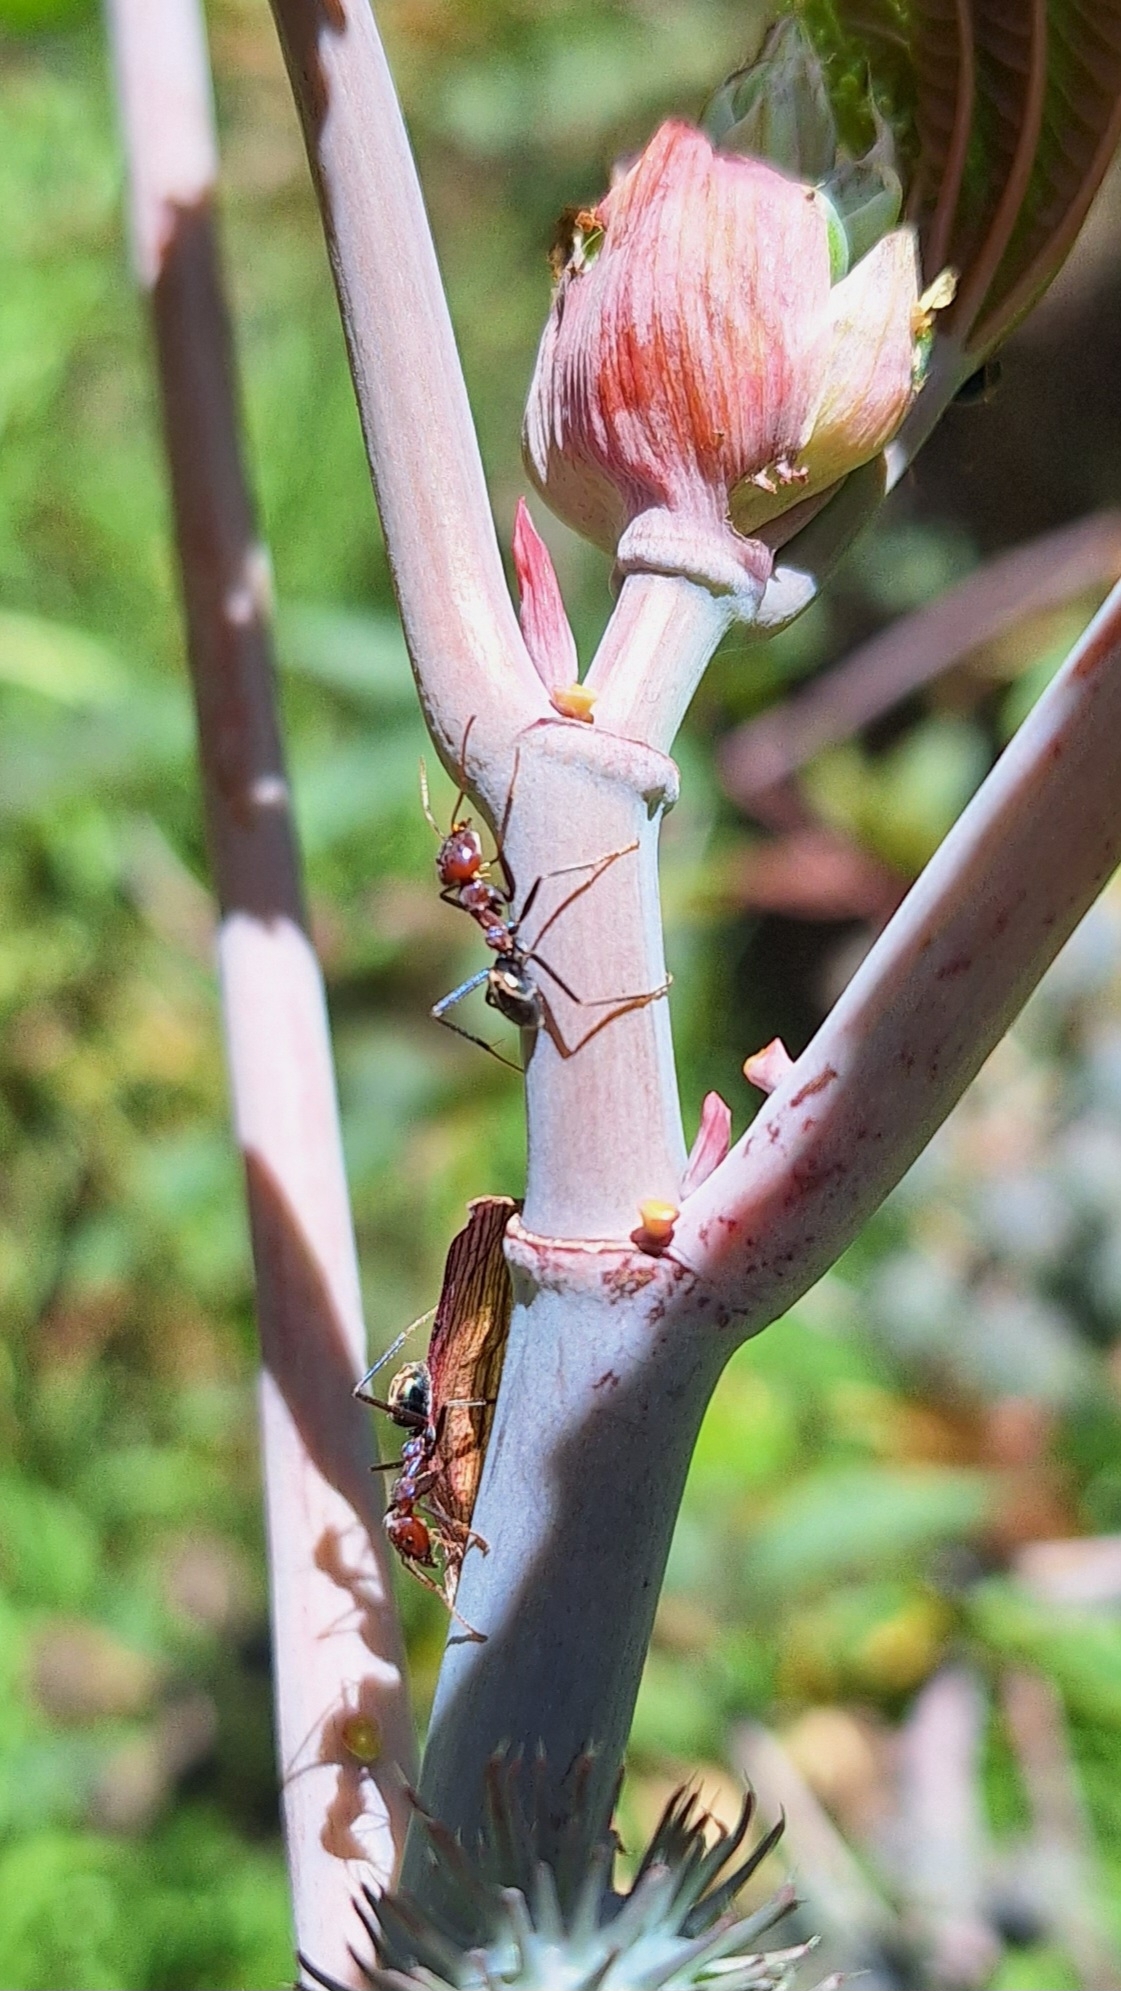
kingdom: Animalia
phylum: Arthropoda
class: Insecta
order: Hymenoptera
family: Formicidae
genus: Iridomyrmex
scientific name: Iridomyrmex purpureus
